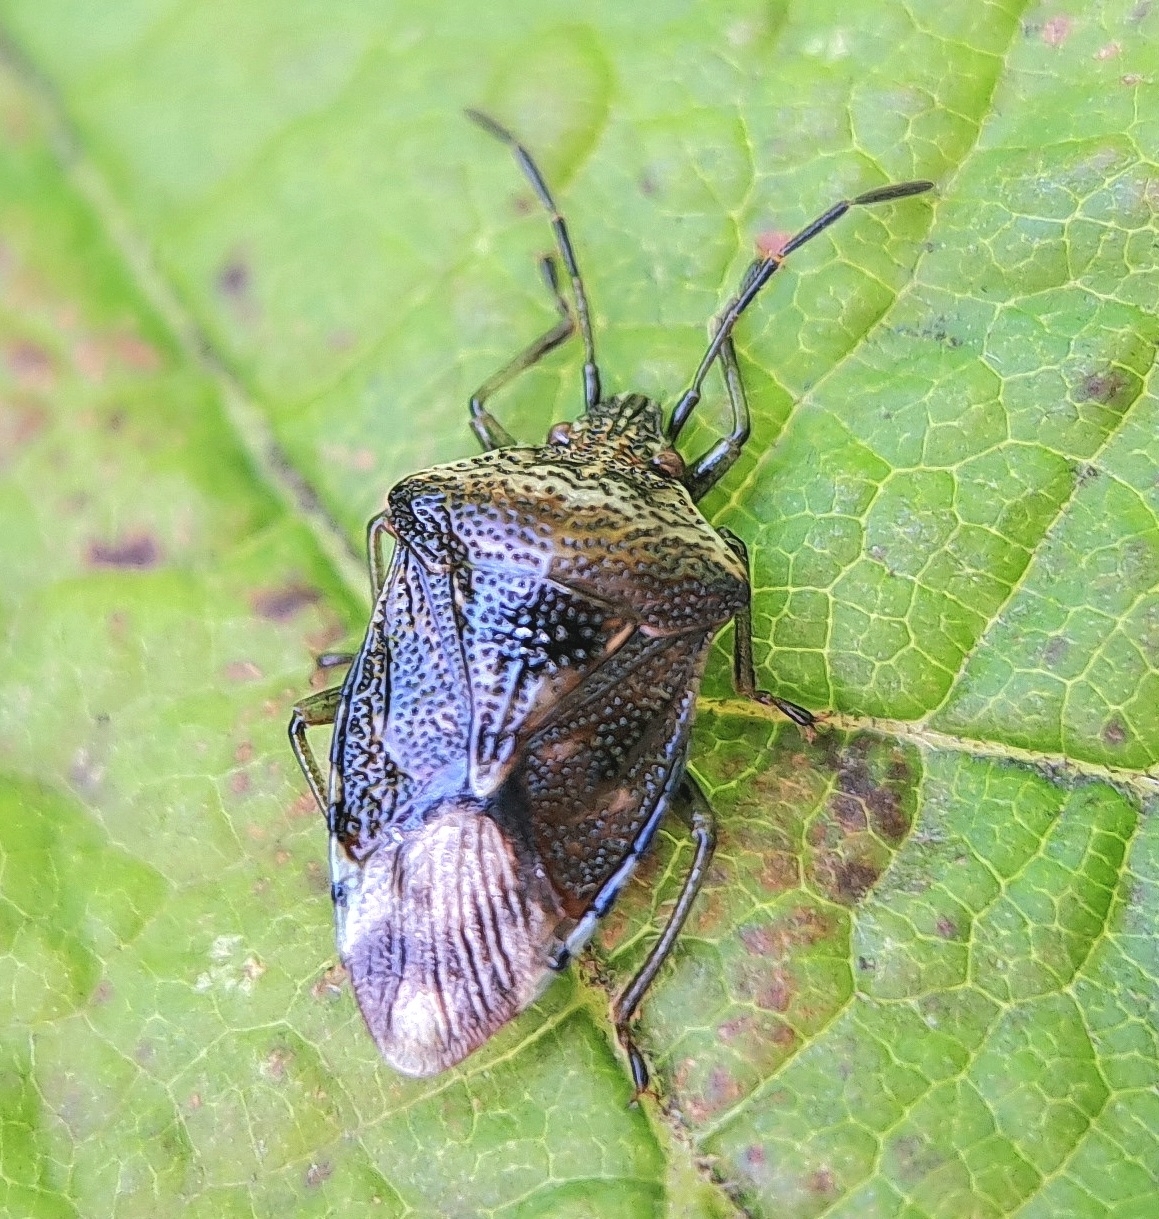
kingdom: Animalia
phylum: Arthropoda
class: Insecta
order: Hemiptera
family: Acanthosomatidae
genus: Elasmucha
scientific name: Elasmucha grisea
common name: Parent bug
